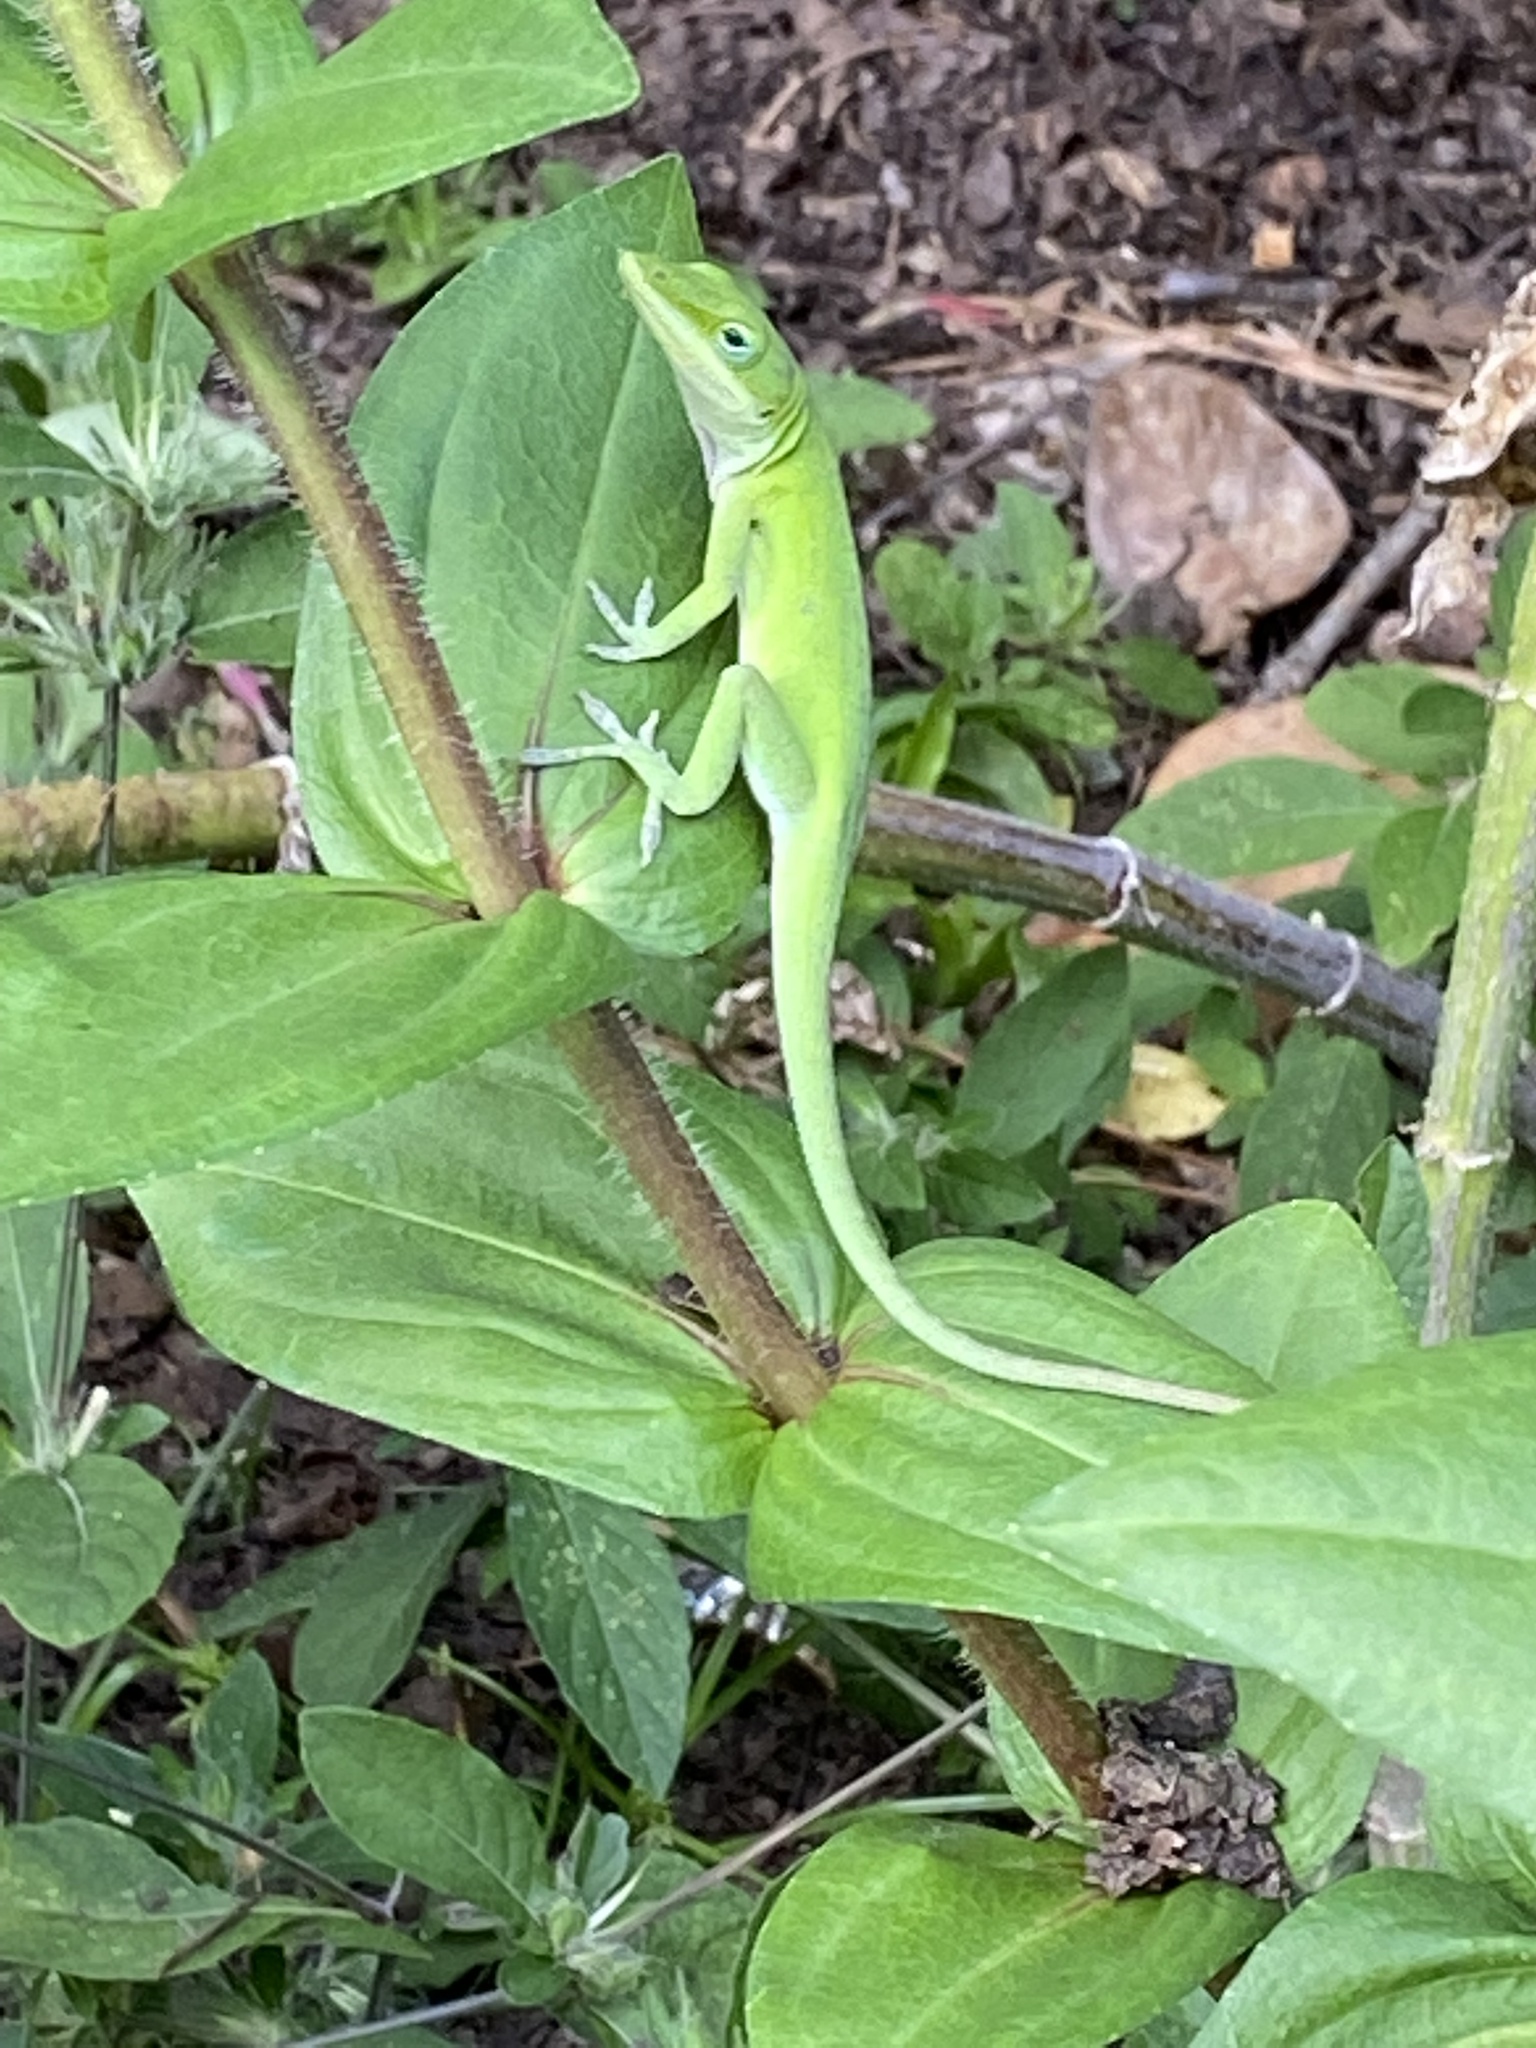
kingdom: Animalia
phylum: Chordata
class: Squamata
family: Dactyloidae
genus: Anolis
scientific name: Anolis carolinensis
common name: Green anole
